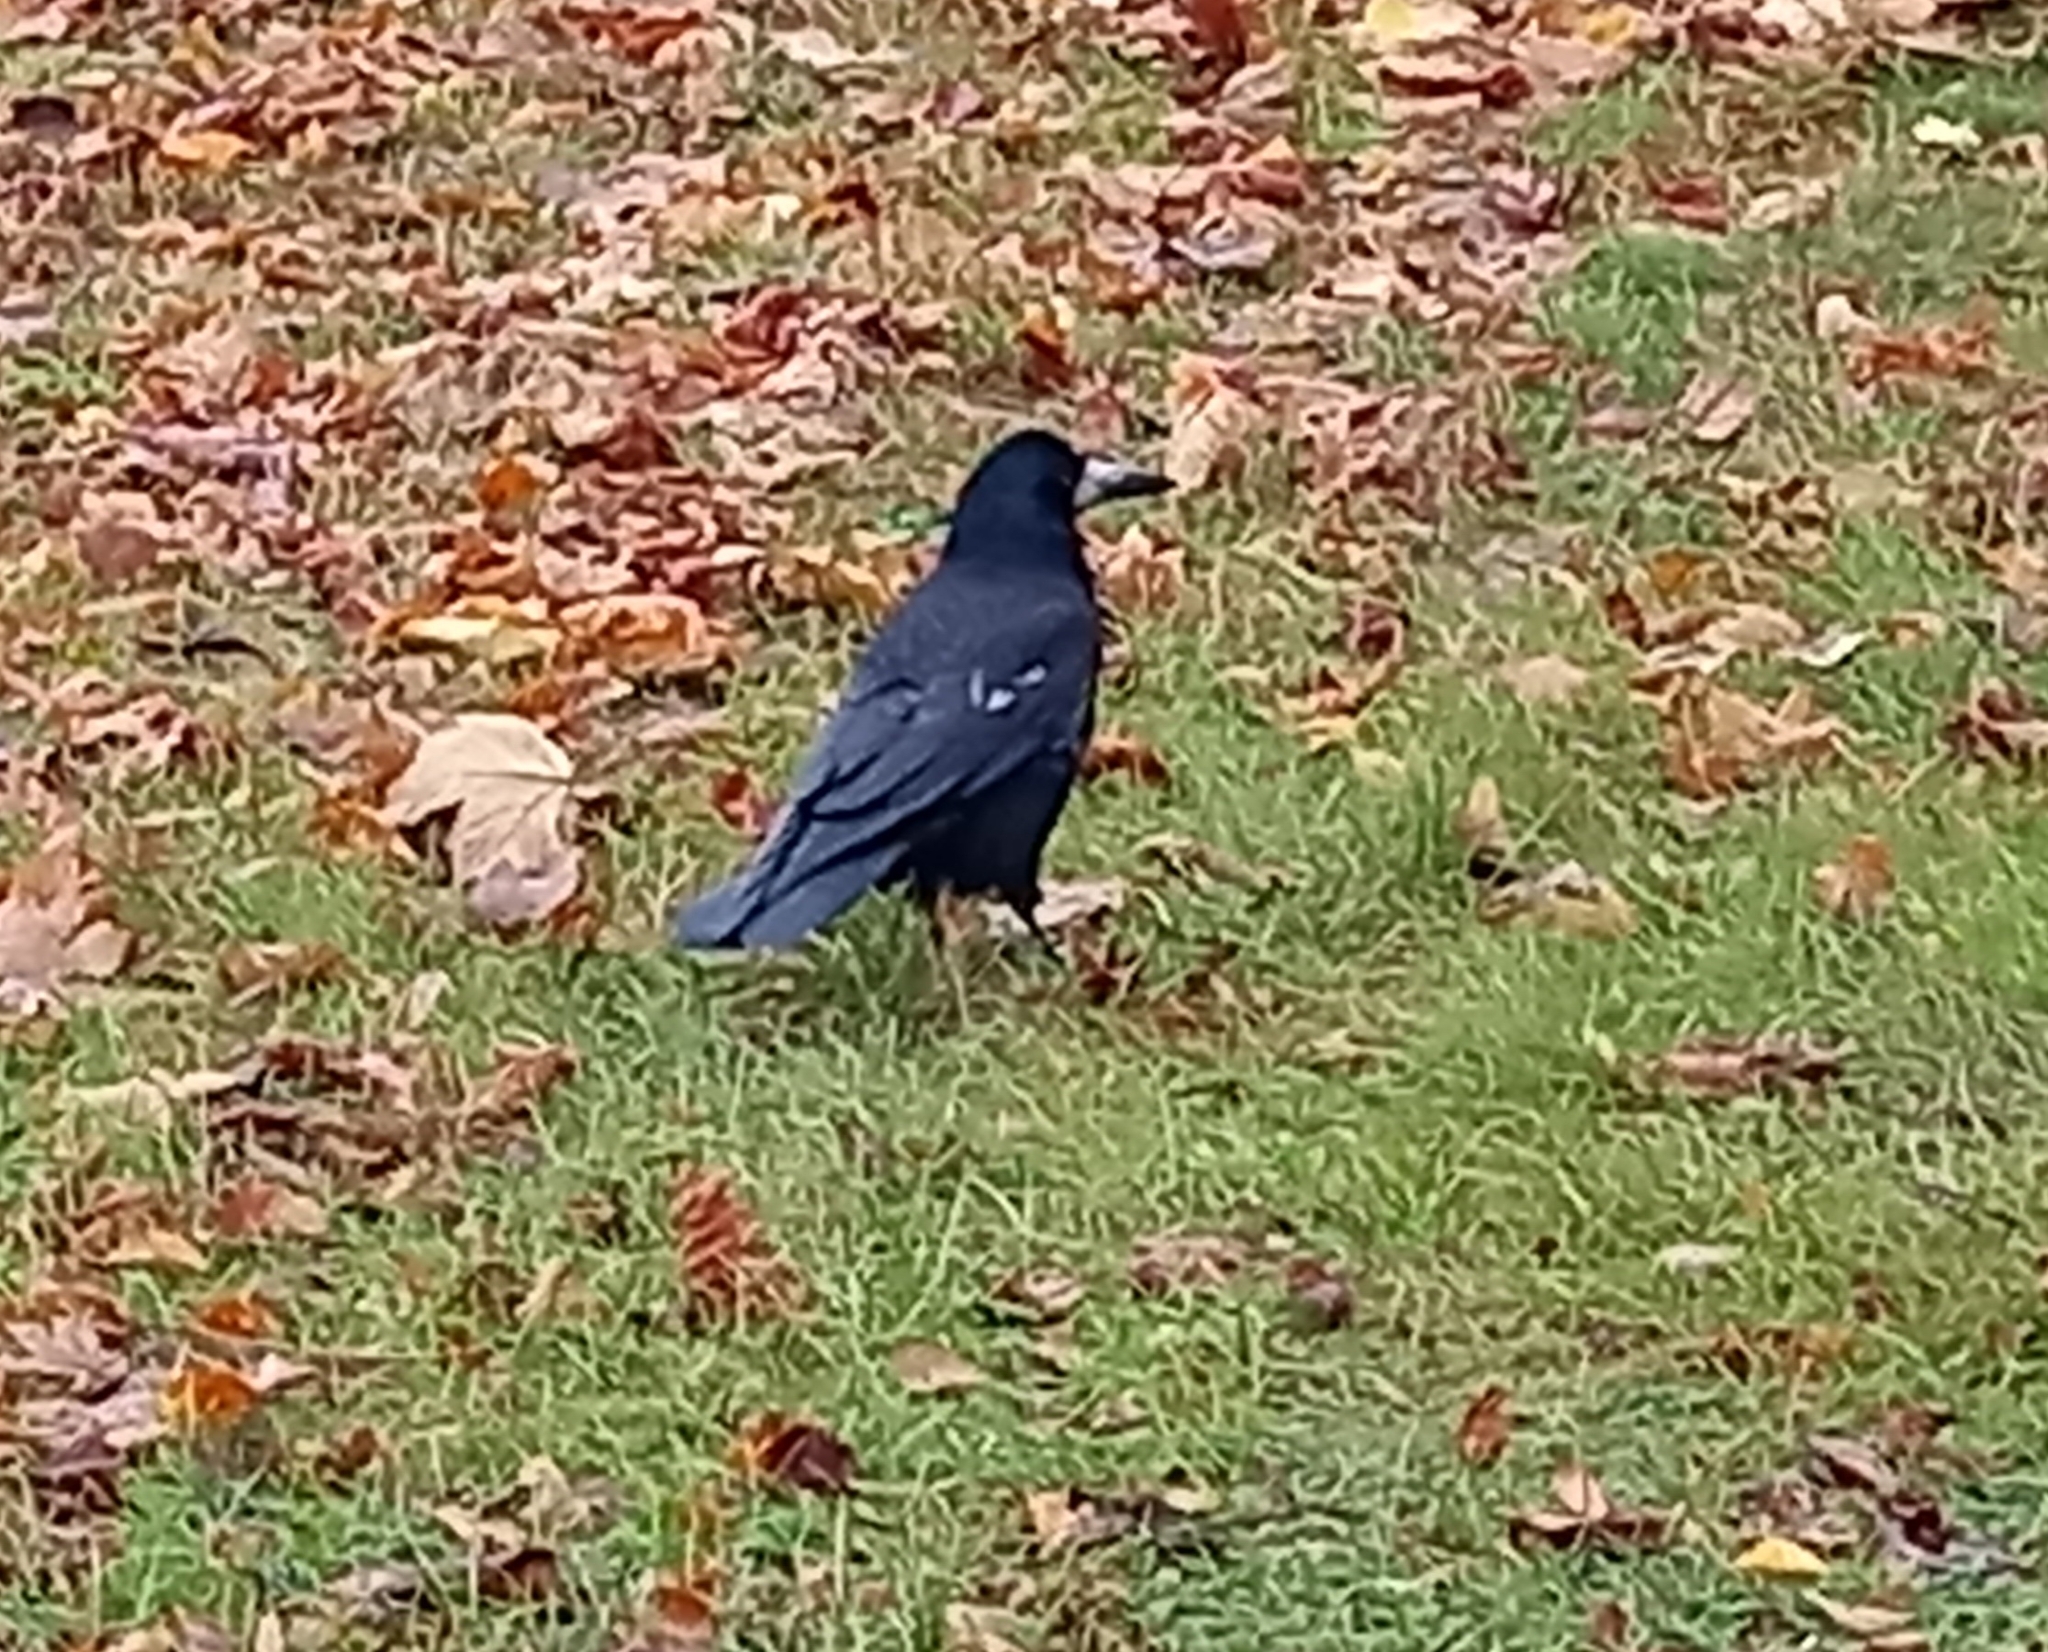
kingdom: Animalia
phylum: Chordata
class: Aves
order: Passeriformes
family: Corvidae
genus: Corvus
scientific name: Corvus frugilegus
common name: Rook
